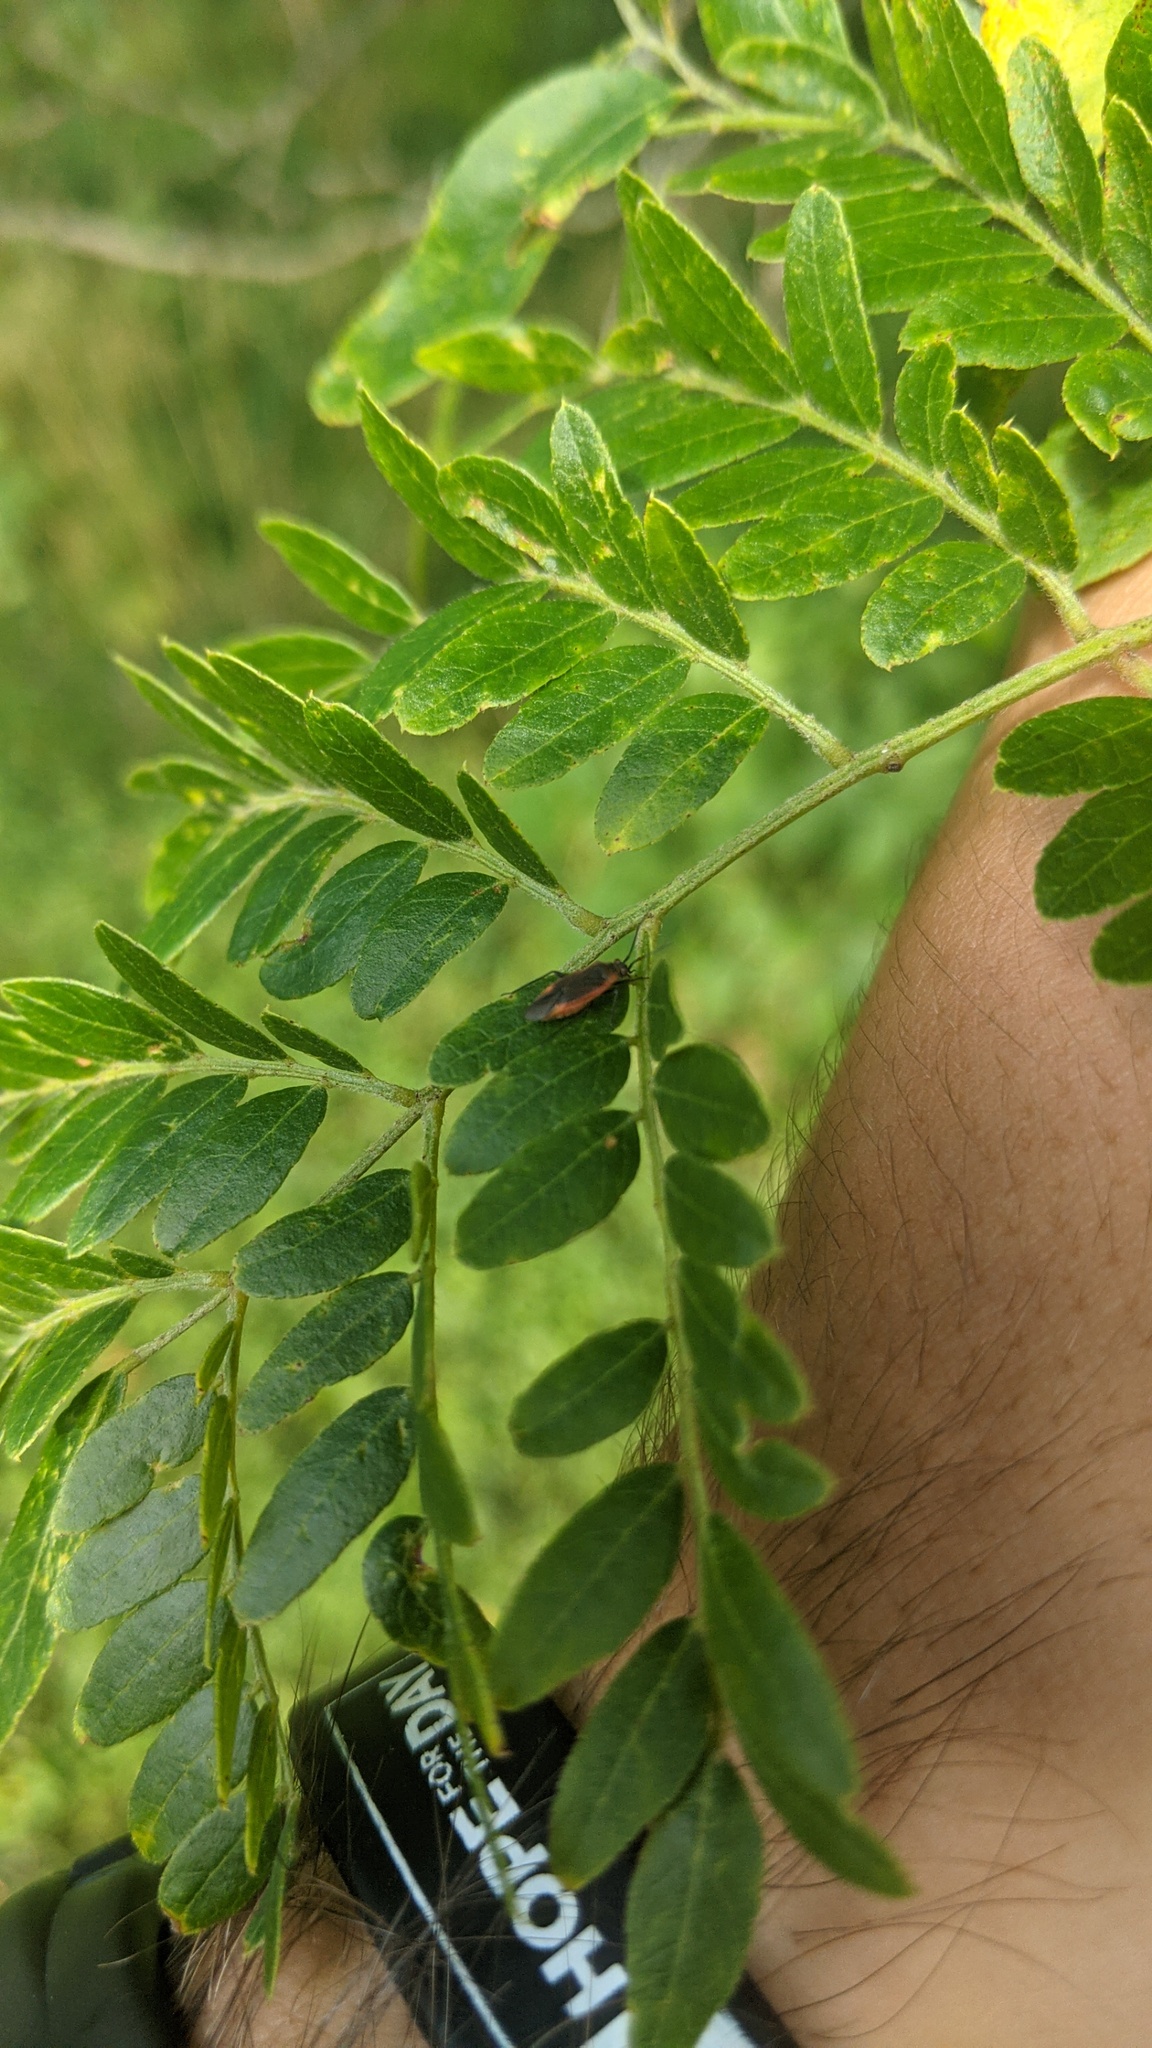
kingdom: Plantae
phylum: Tracheophyta
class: Magnoliopsida
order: Fabales
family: Fabaceae
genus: Gleditsia
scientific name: Gleditsia triacanthos
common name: Common honeylocust
